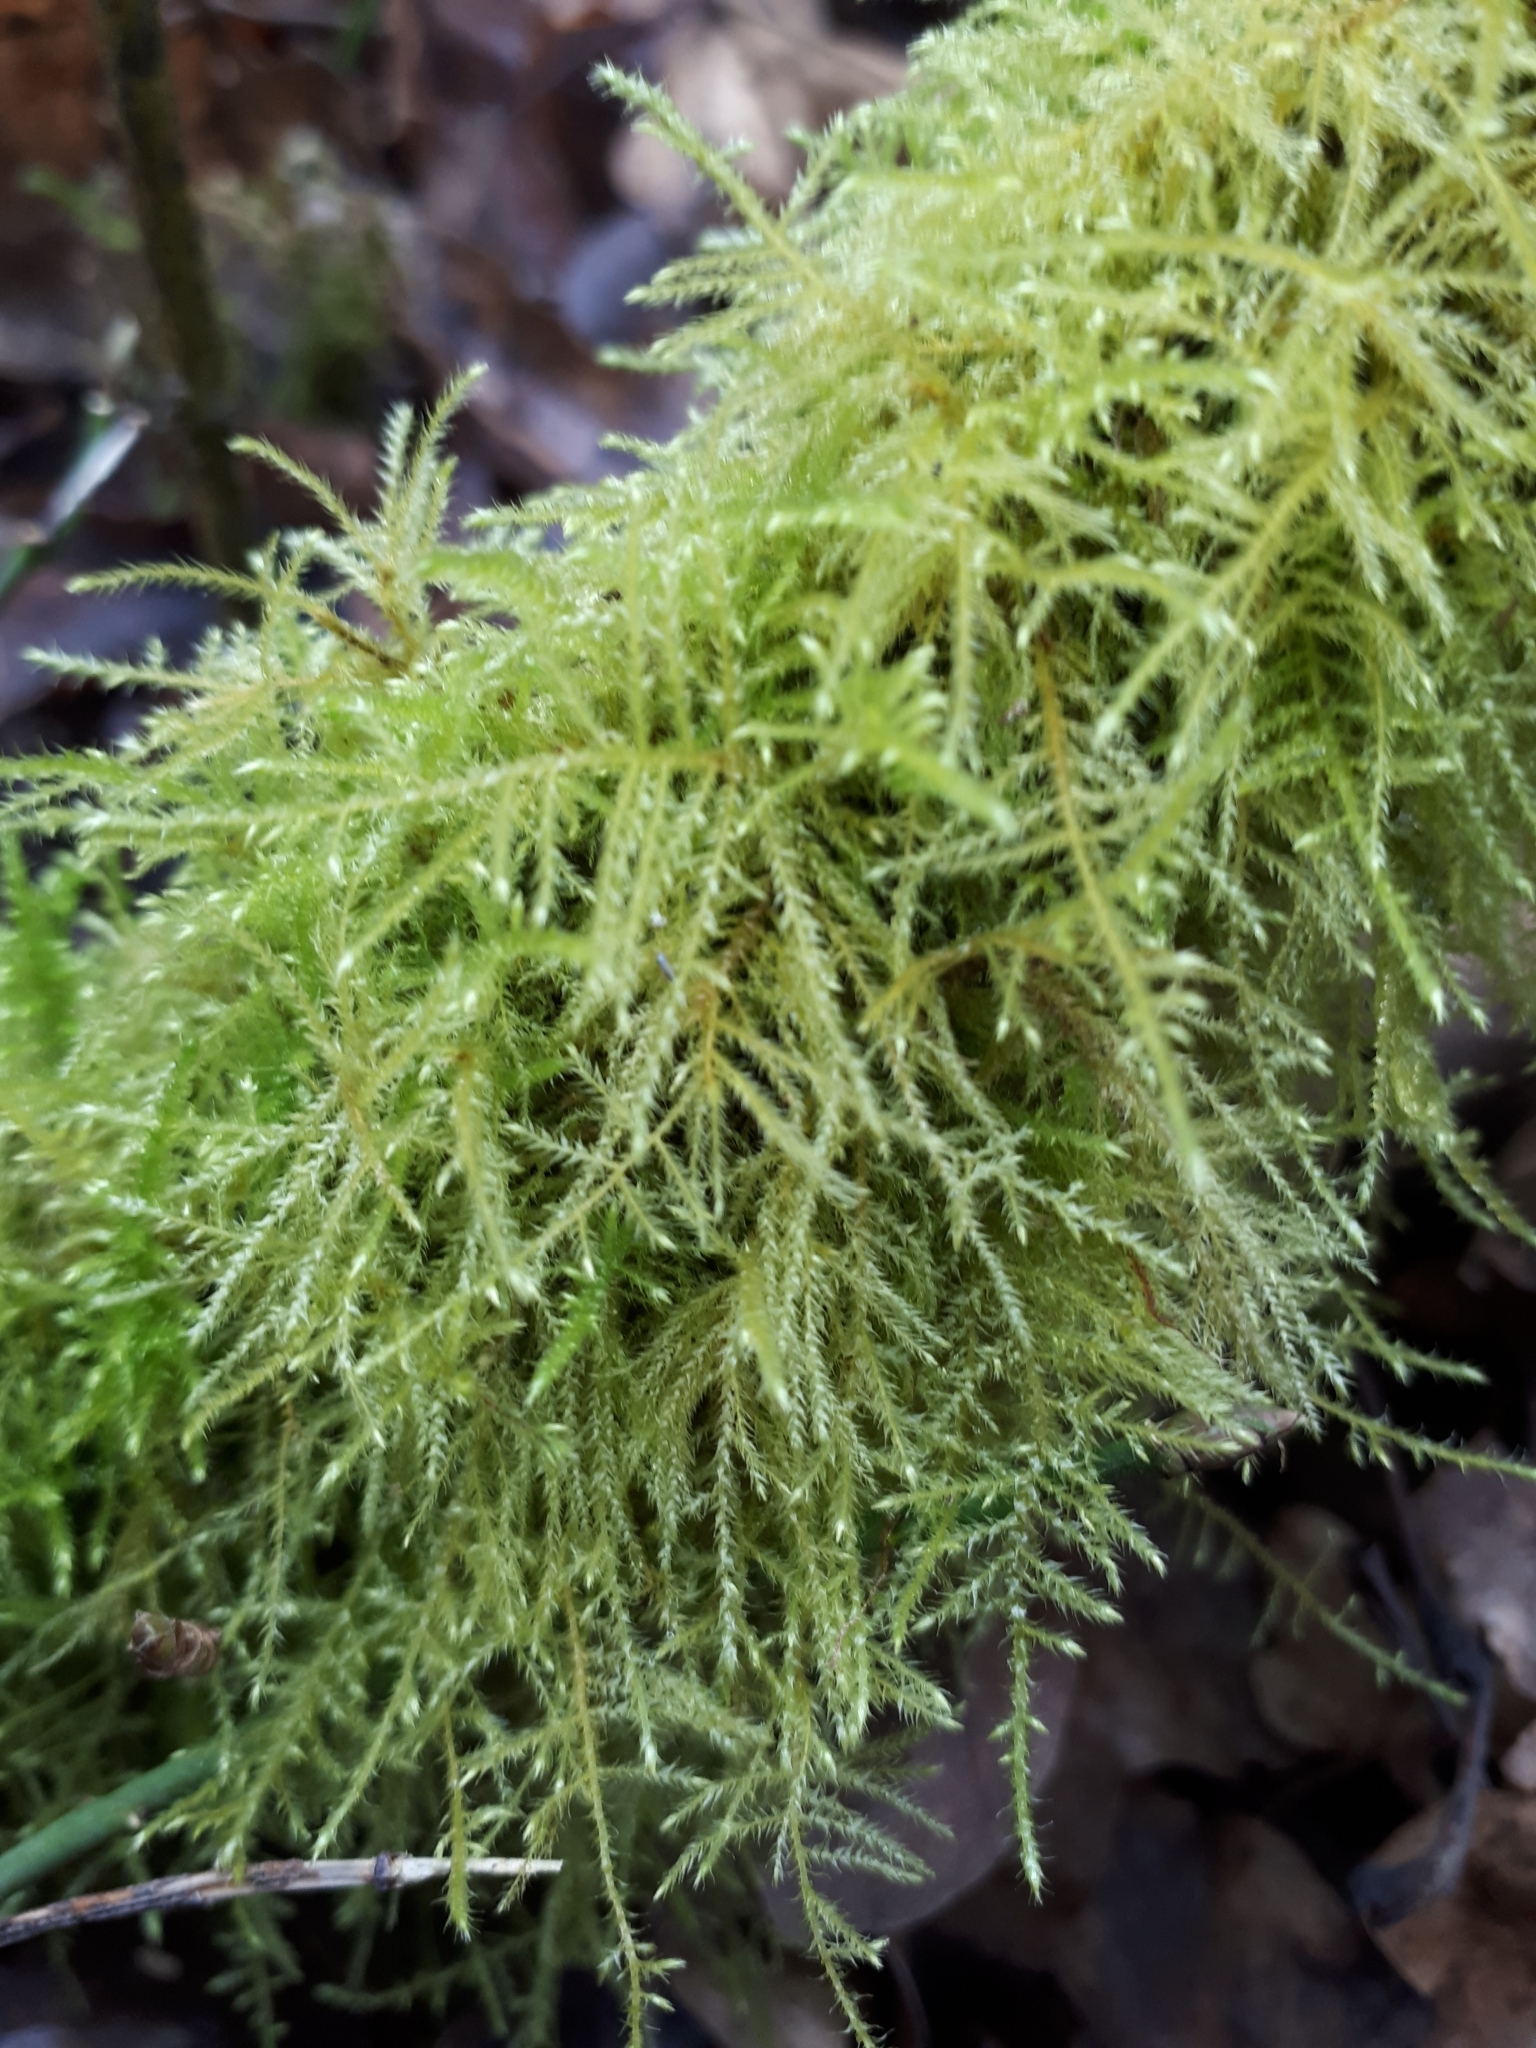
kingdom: Plantae
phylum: Bryophyta
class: Bryopsida
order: Hypnales
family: Brachytheciaceae
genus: Kindbergia
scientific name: Kindbergia praelonga
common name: Slender beaked moss
